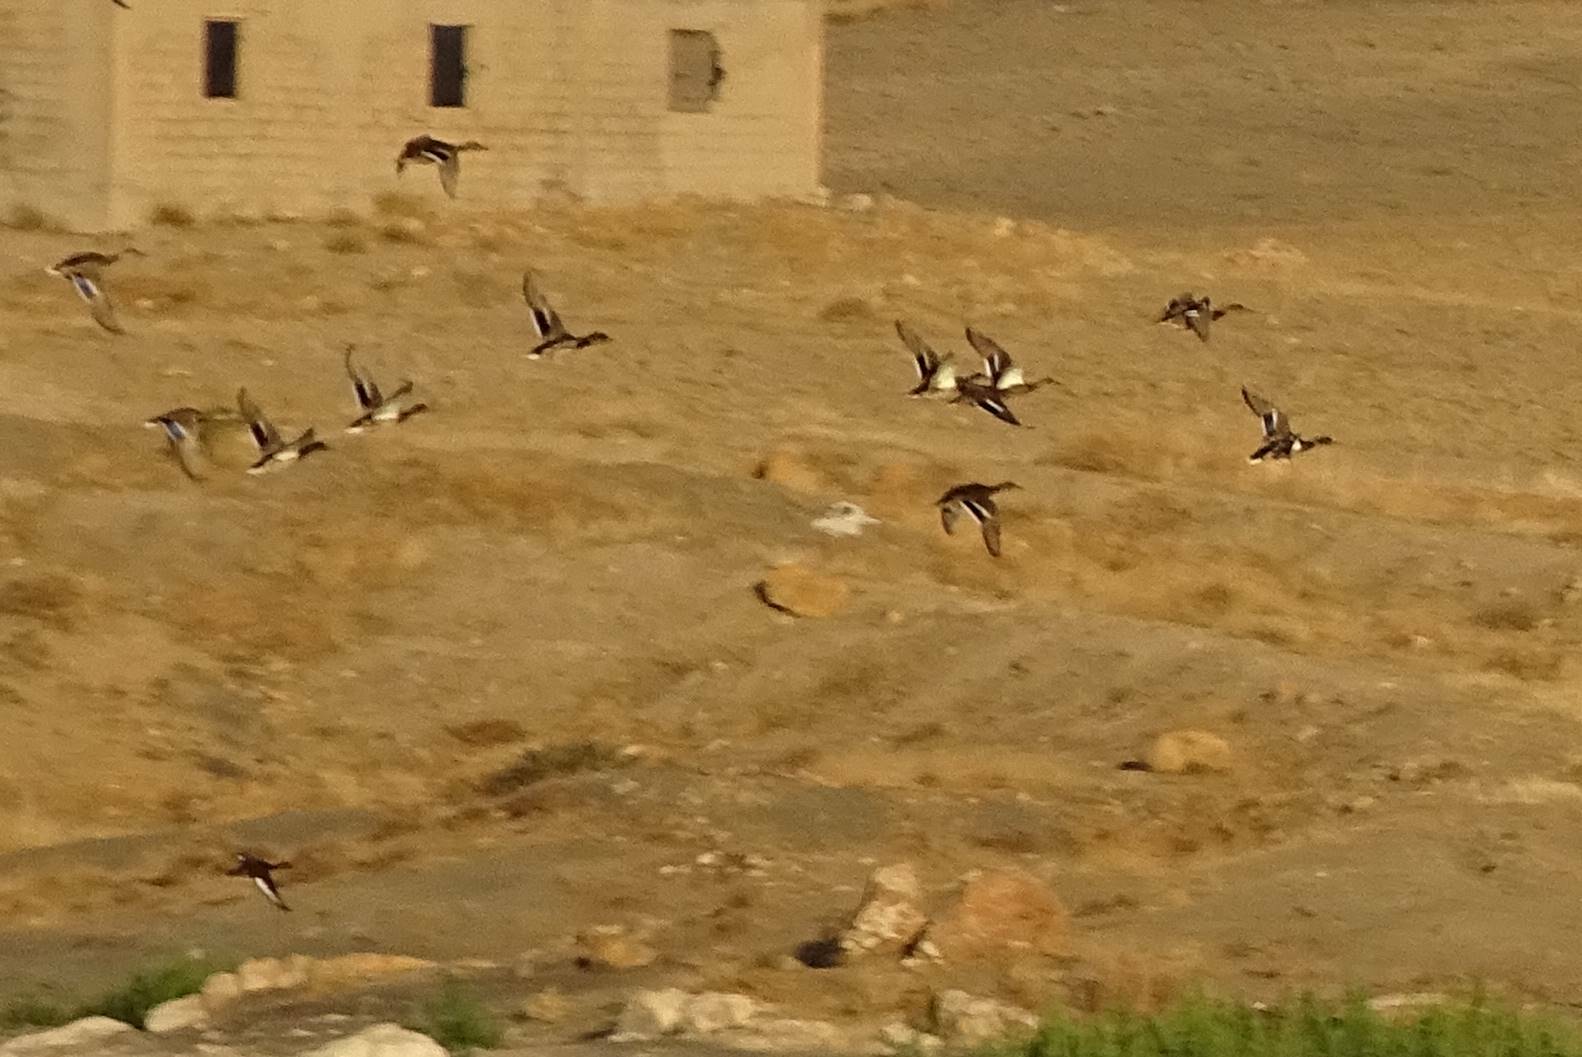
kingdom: Animalia
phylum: Chordata
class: Aves
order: Anseriformes
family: Anatidae
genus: Anas
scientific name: Anas crecca
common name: Eurasian teal
